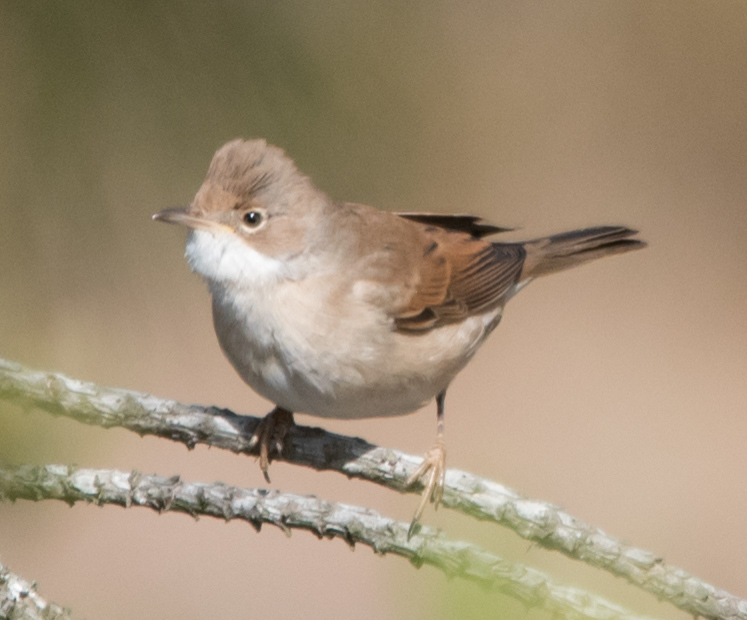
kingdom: Animalia
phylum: Chordata
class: Aves
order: Passeriformes
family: Sylviidae
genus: Sylvia
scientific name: Sylvia communis
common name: Common whitethroat
